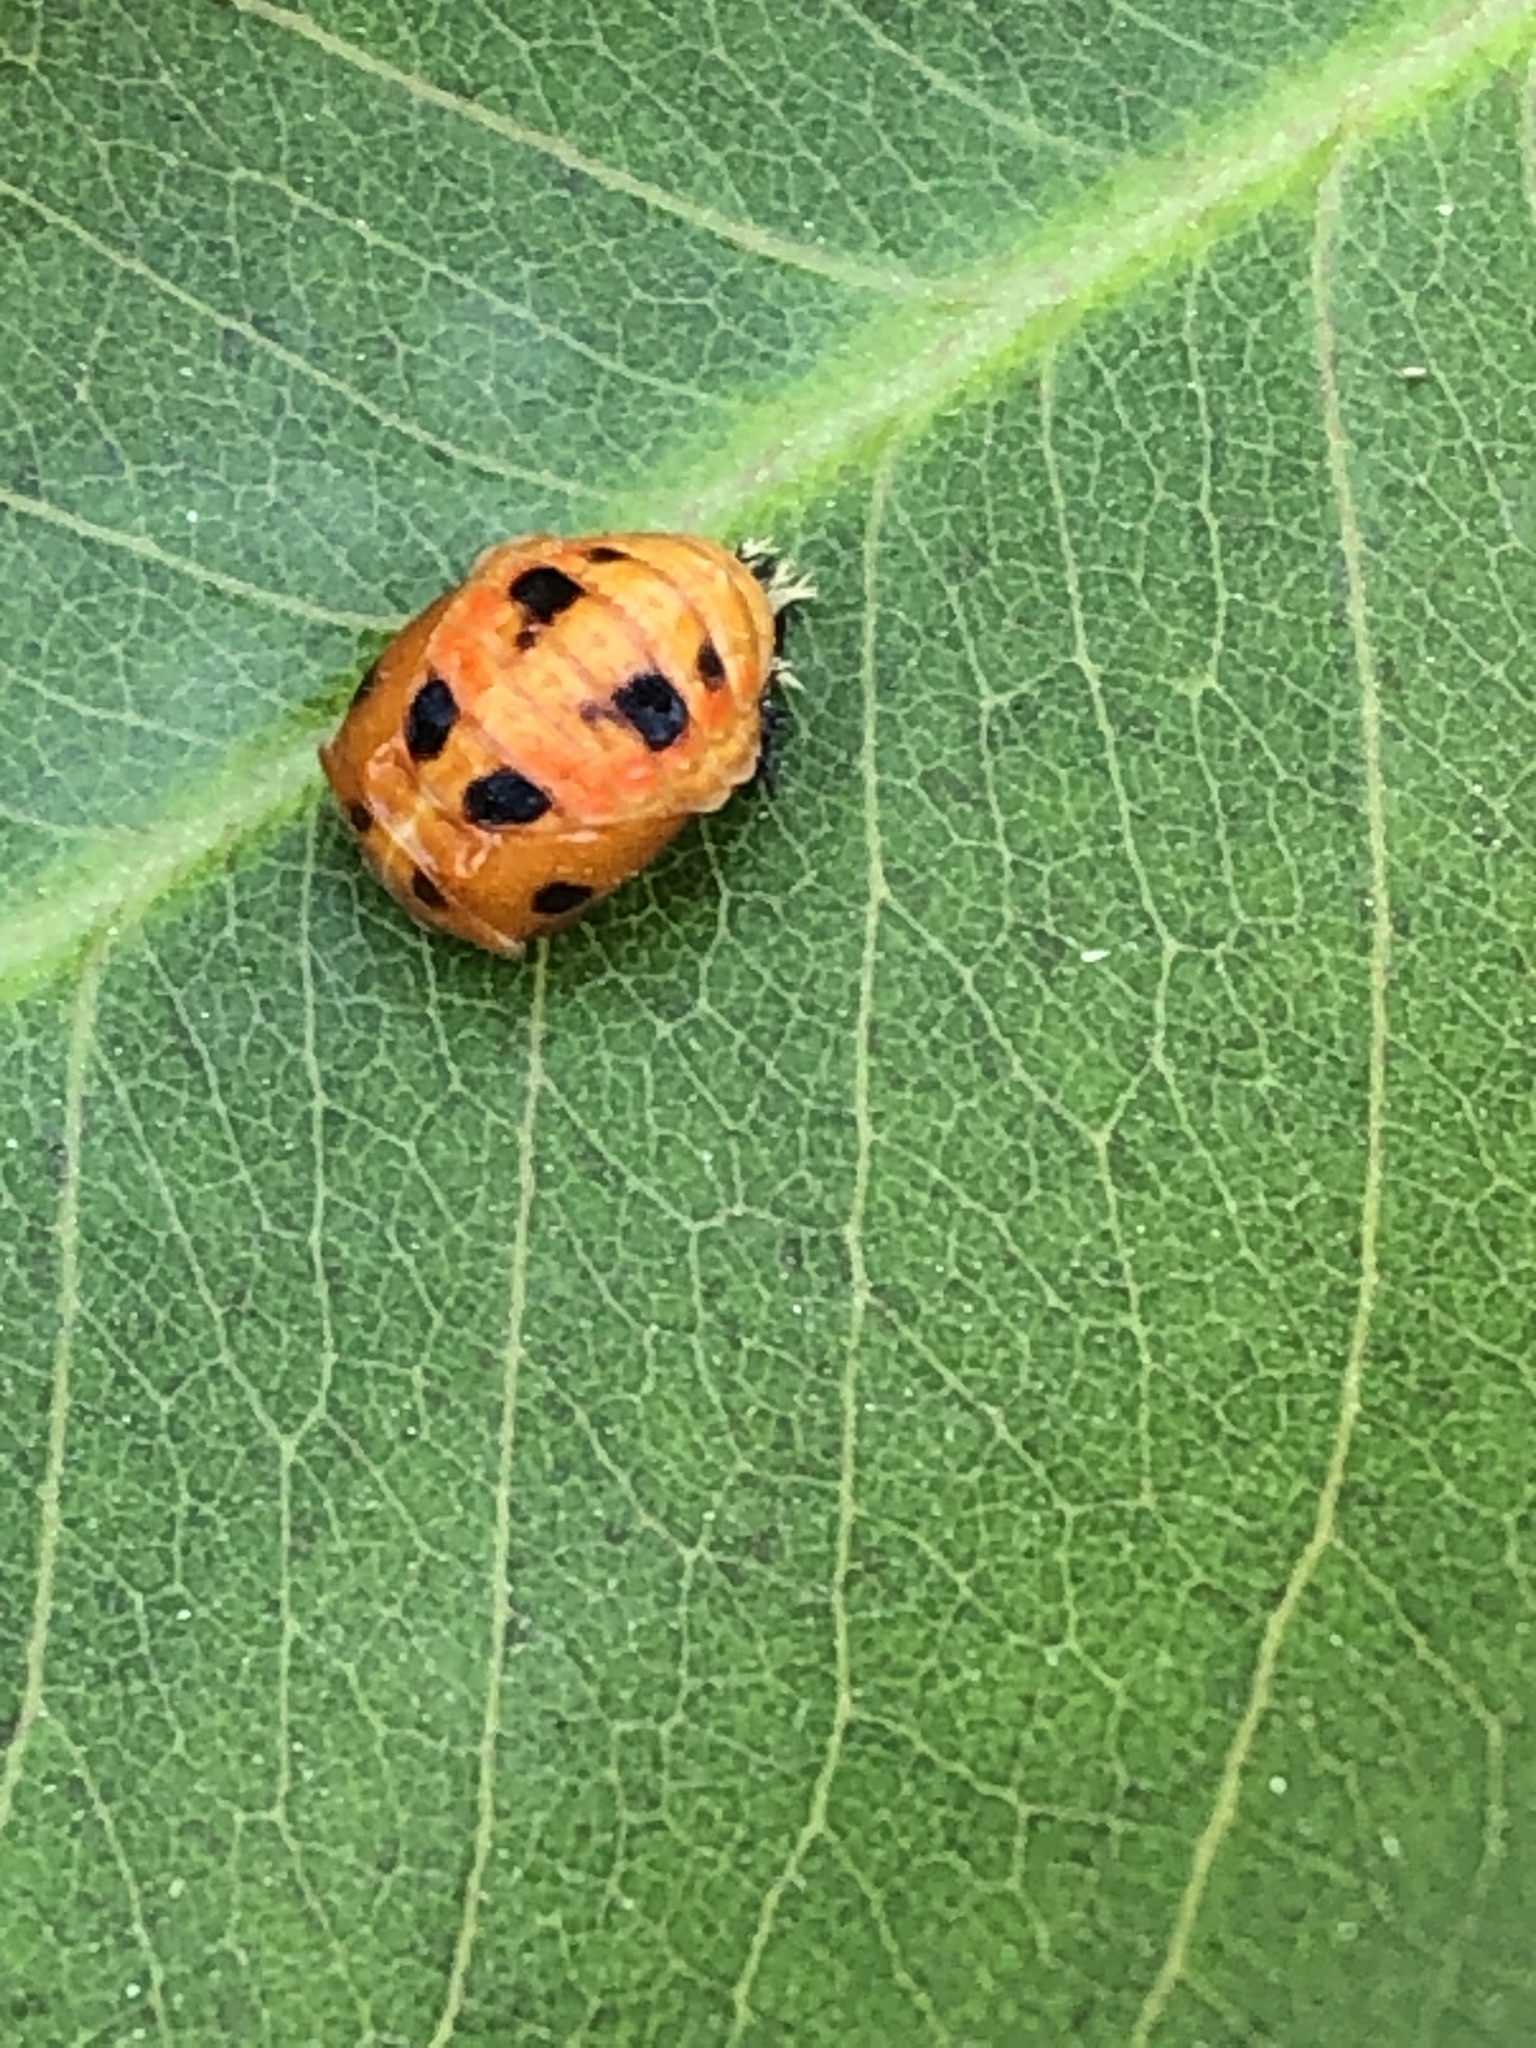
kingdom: Animalia
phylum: Arthropoda
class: Insecta
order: Coleoptera
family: Coccinellidae
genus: Harmonia
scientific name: Harmonia axyridis
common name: Harlequin ladybird
